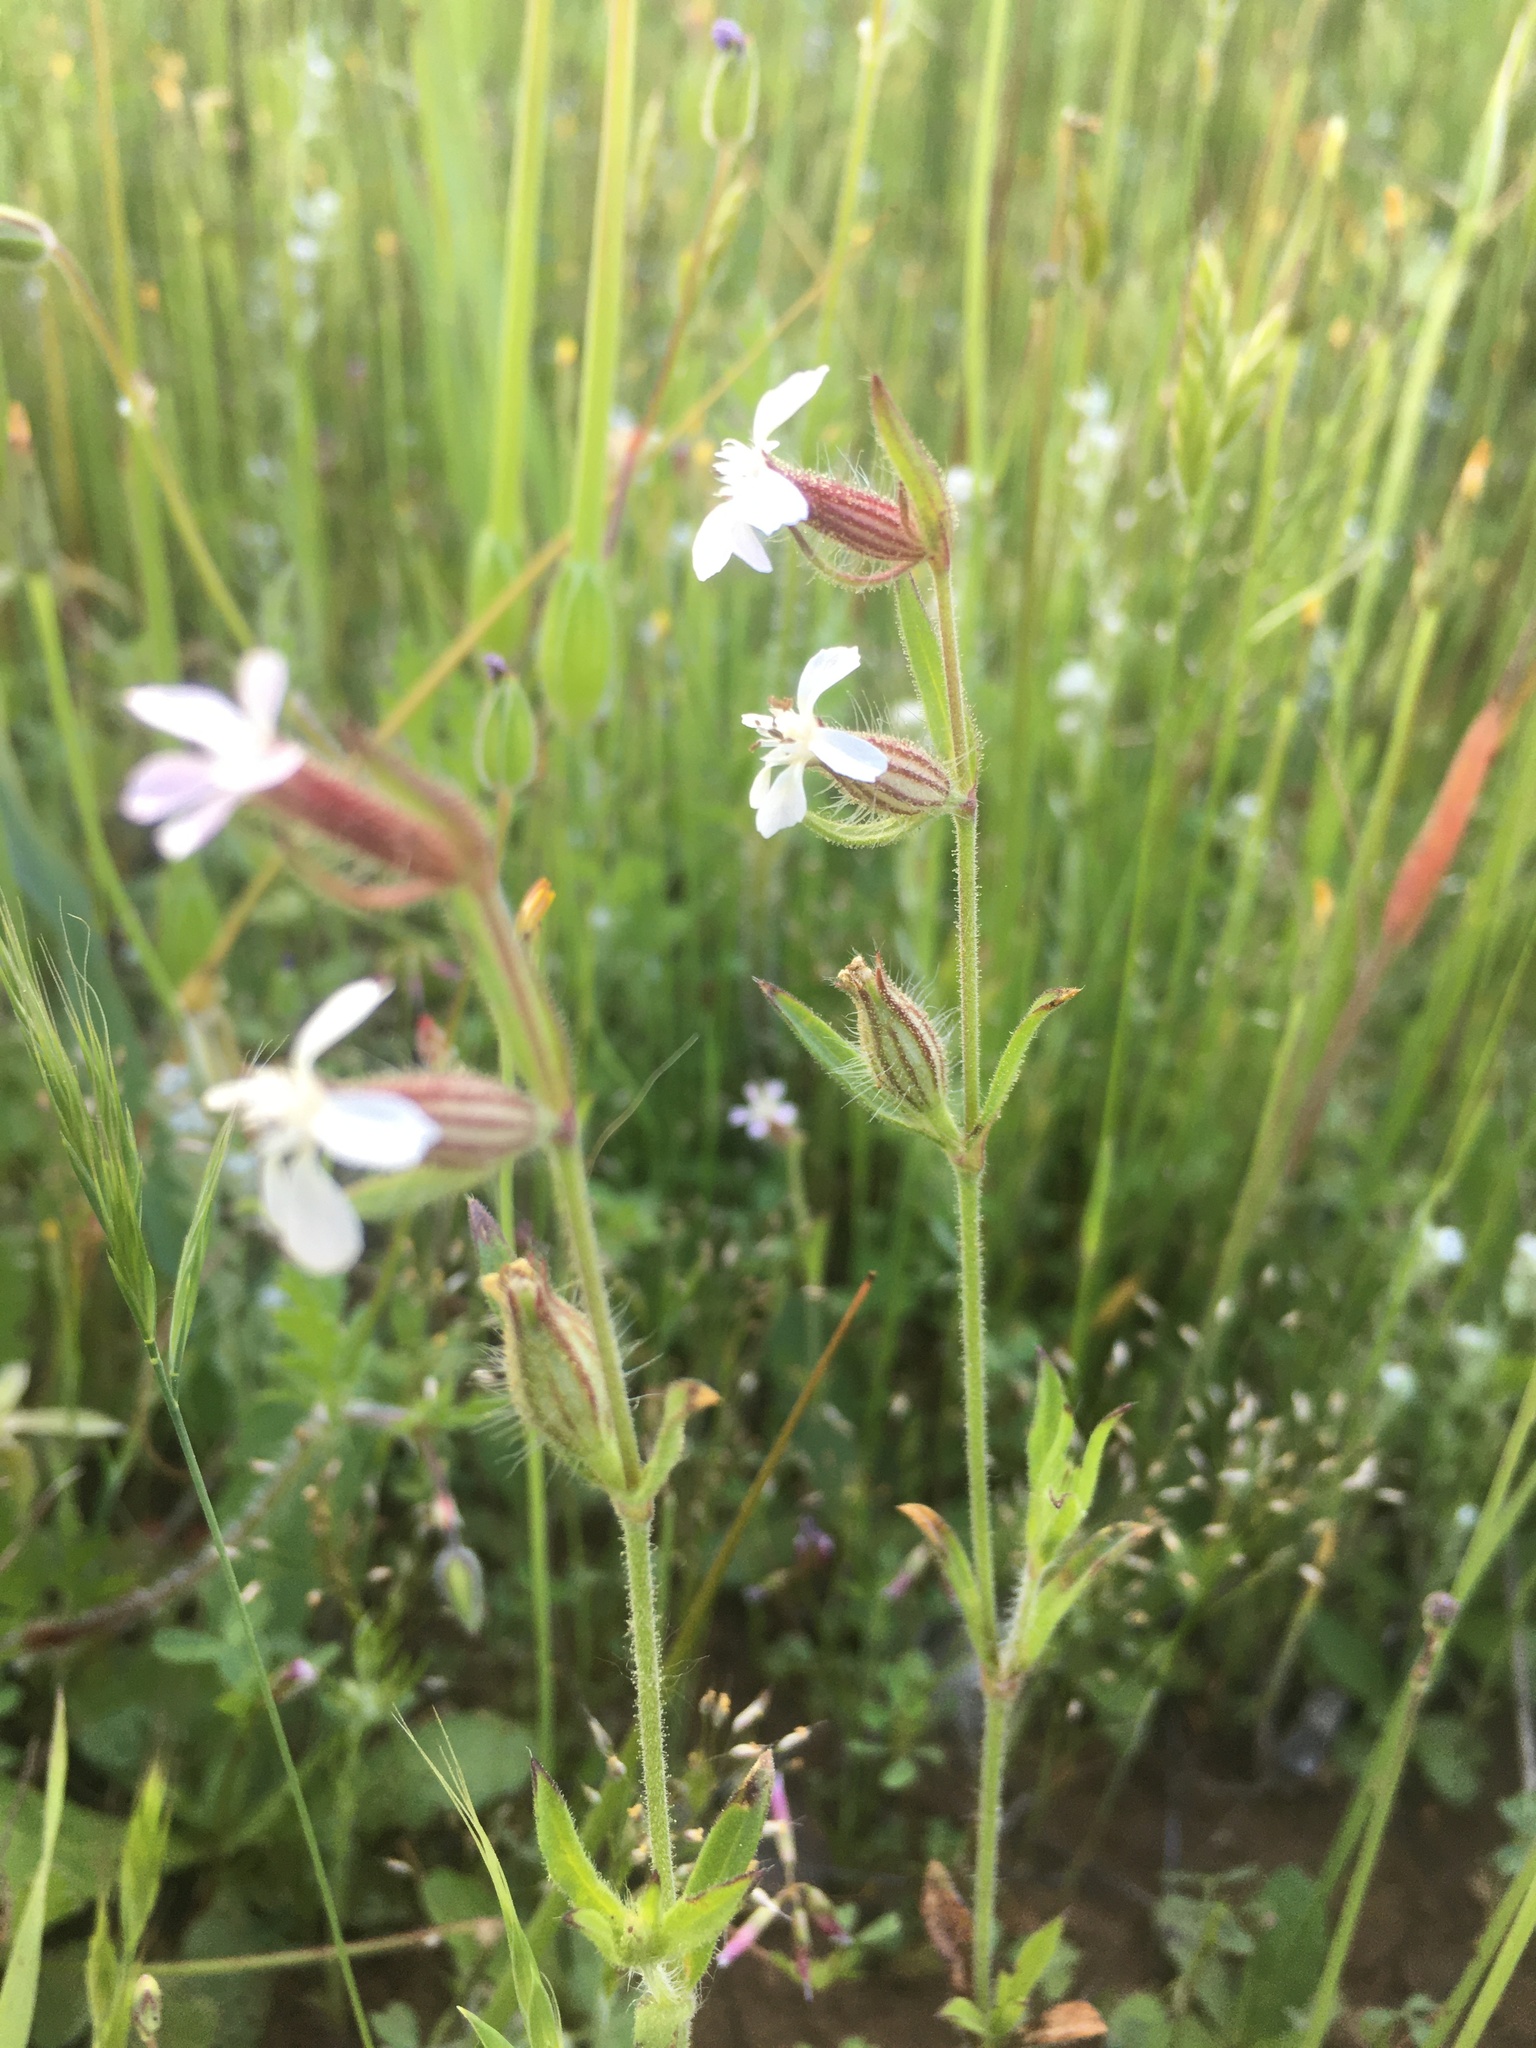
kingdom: Plantae
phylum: Tracheophyta
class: Magnoliopsida
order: Caryophyllales
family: Caryophyllaceae
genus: Silene
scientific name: Silene gallica
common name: Small-flowered catchfly
